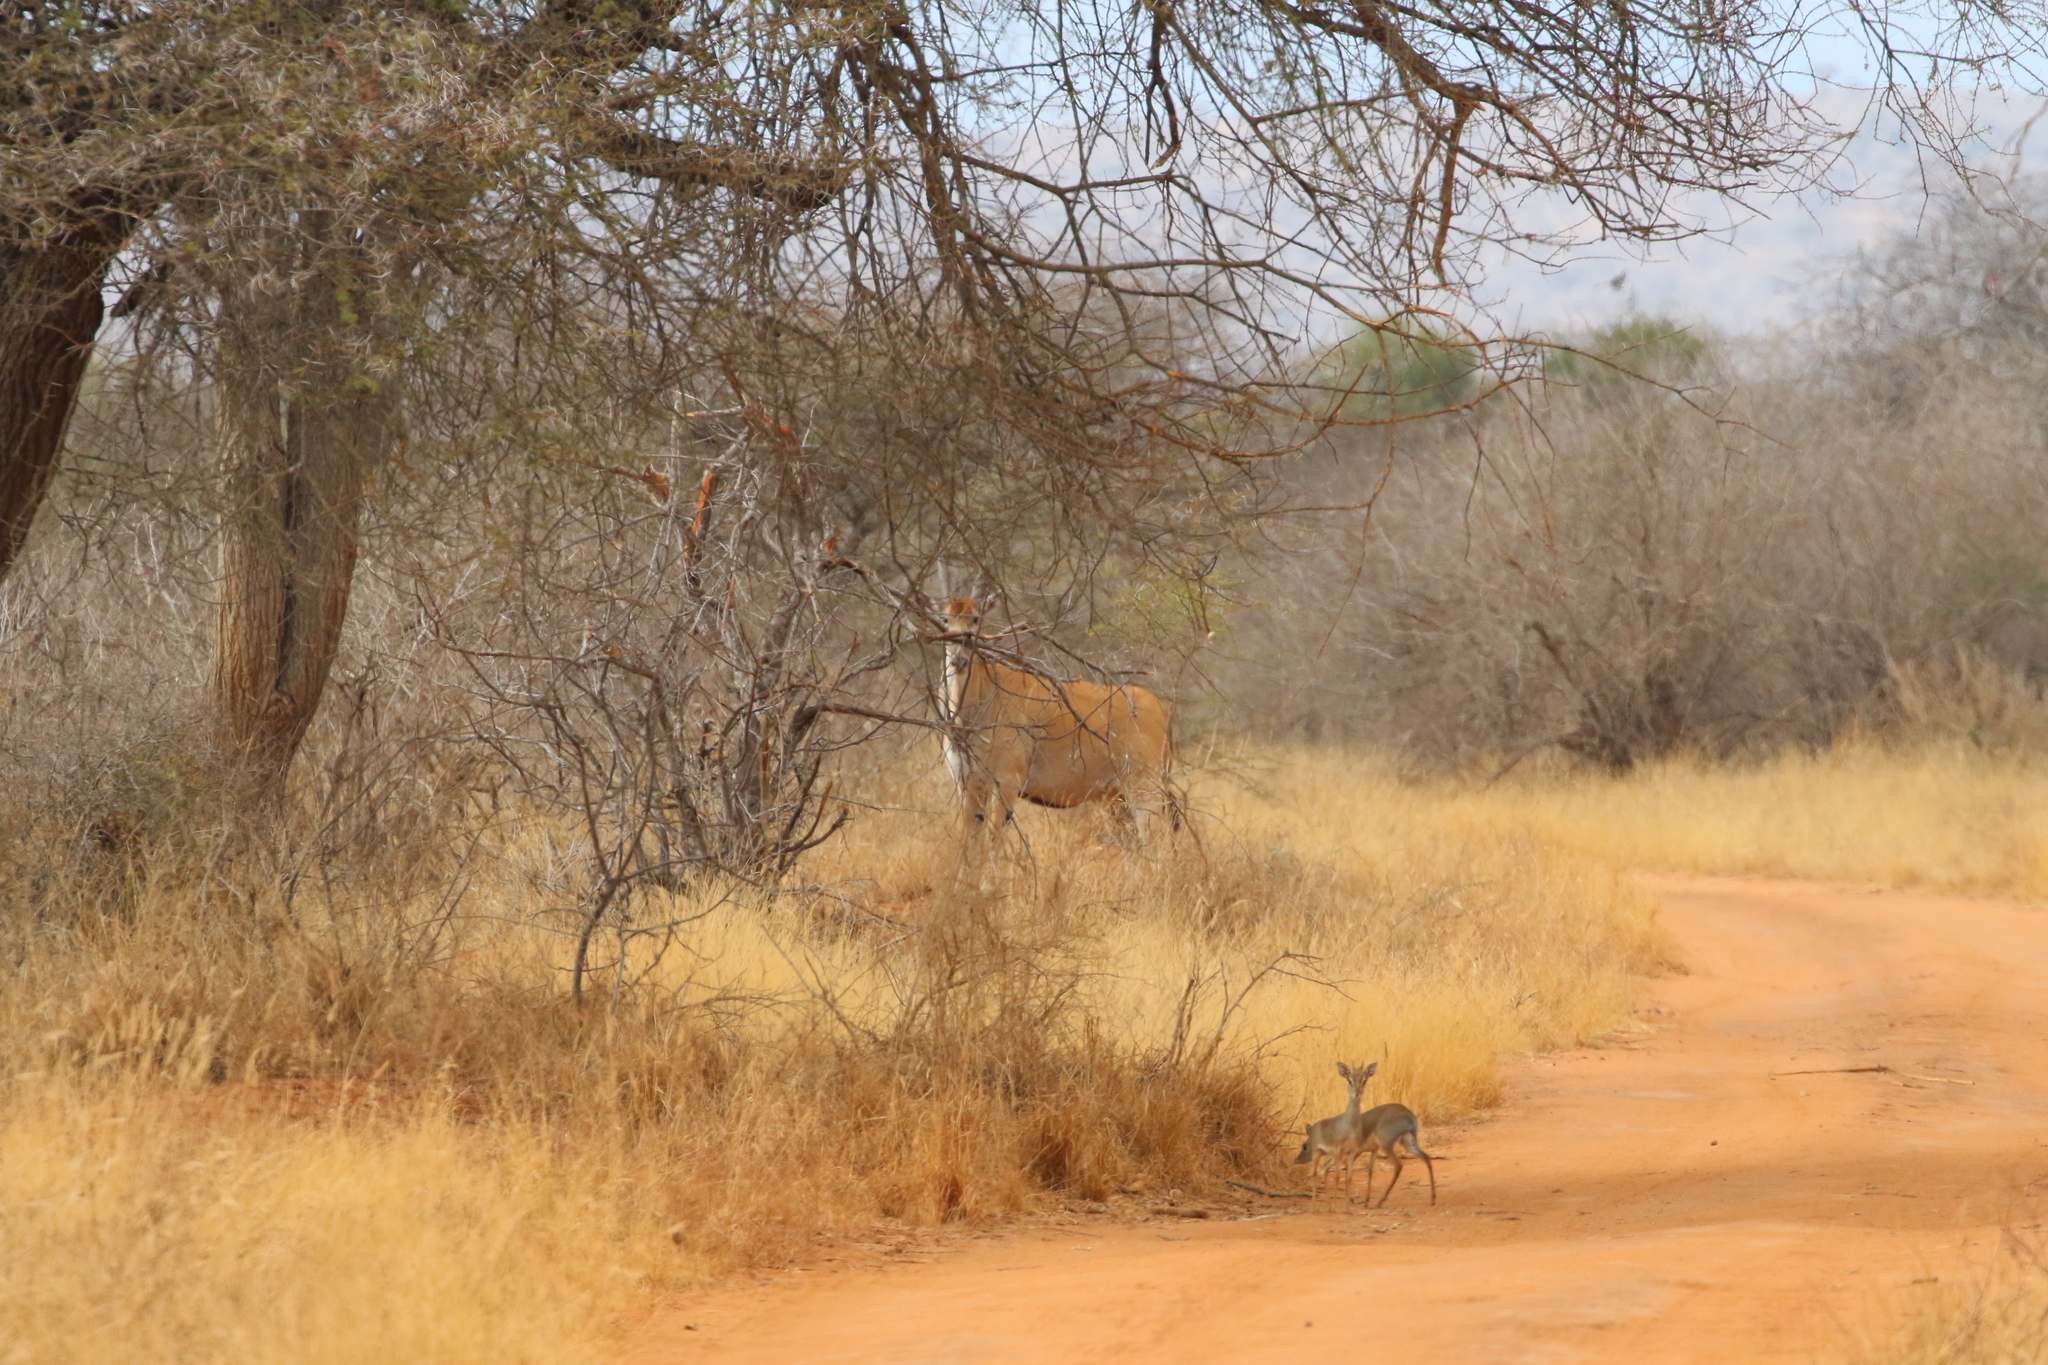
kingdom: Animalia
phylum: Chordata
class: Mammalia
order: Artiodactyla
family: Bovidae
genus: Taurotragus
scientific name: Taurotragus oryx
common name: Common eland
